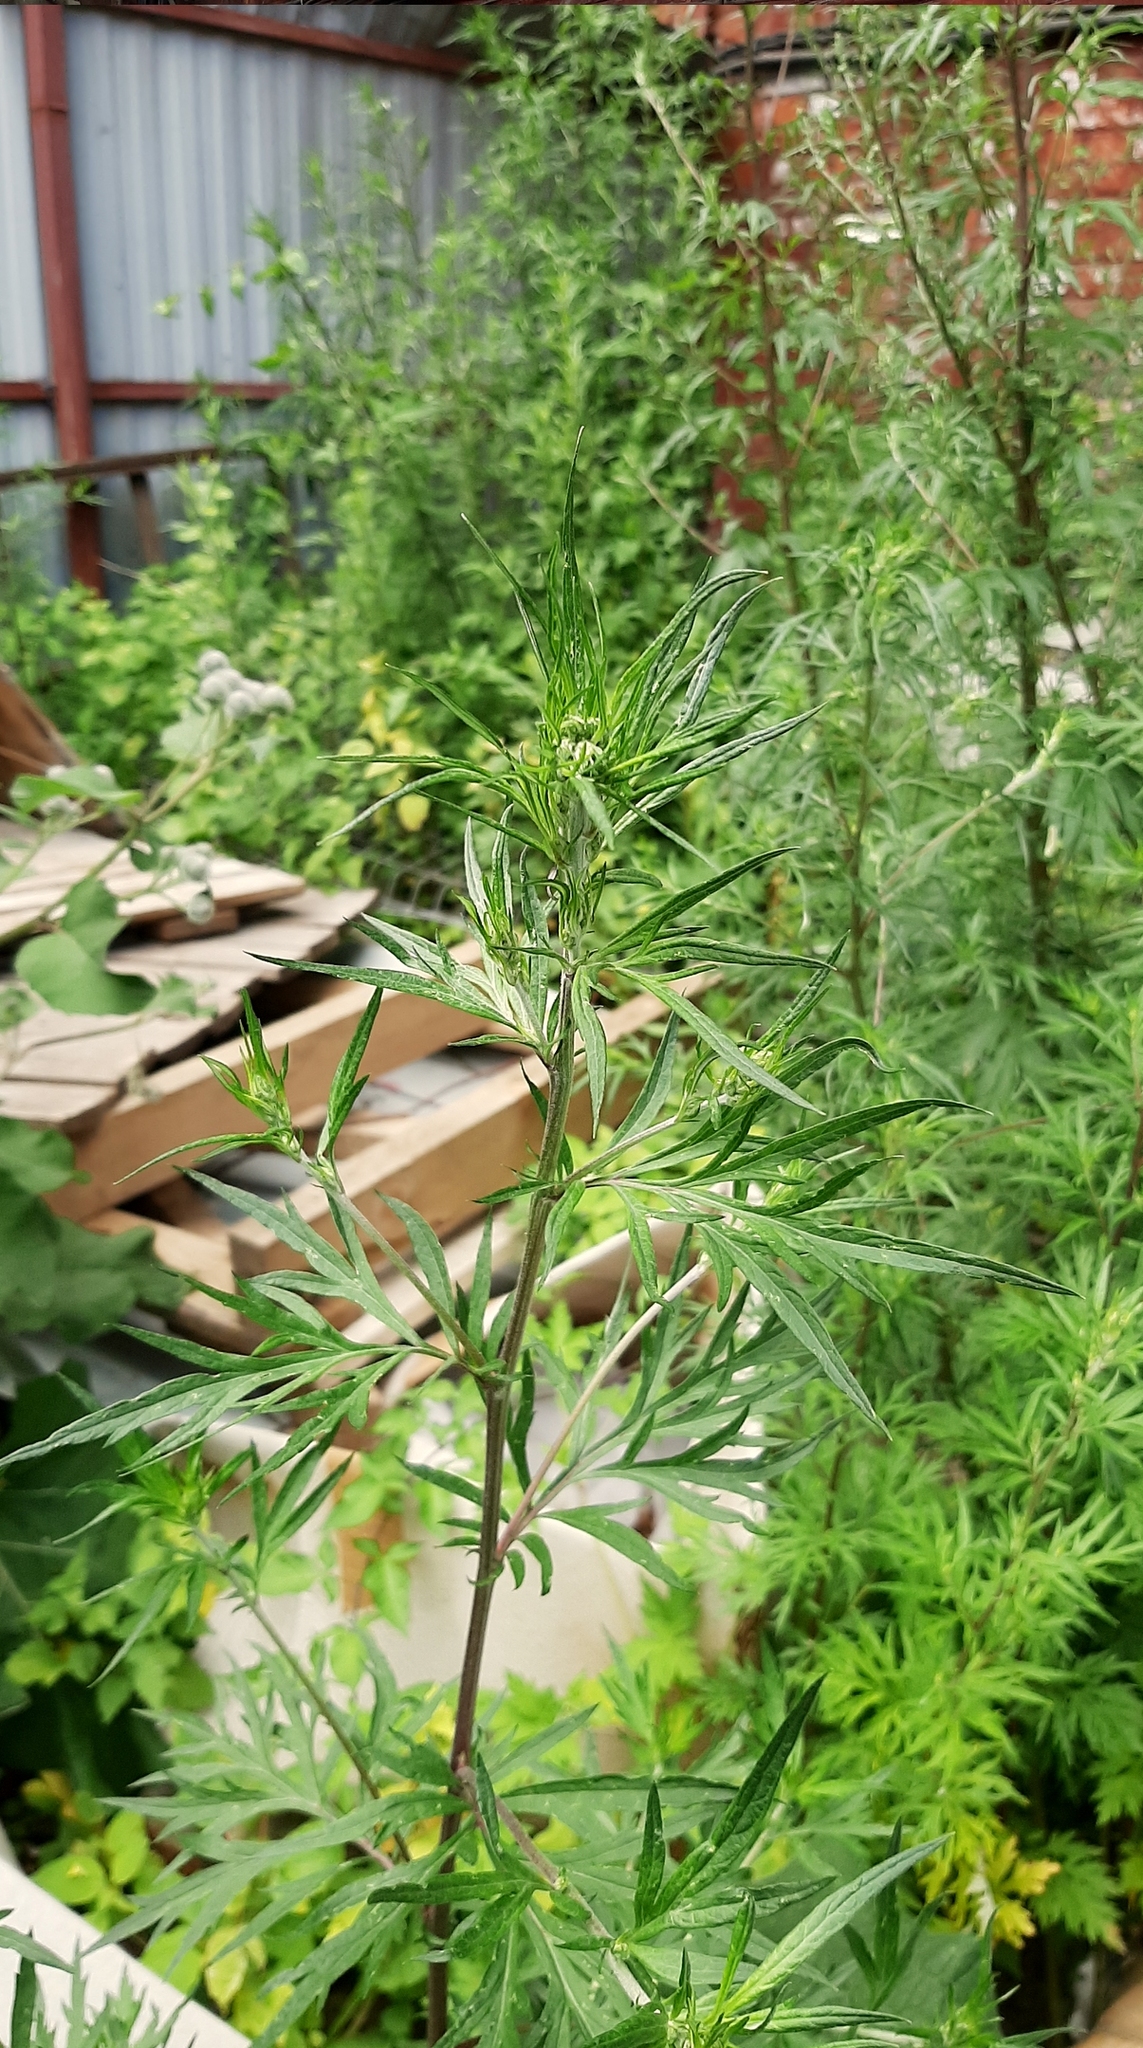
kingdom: Plantae
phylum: Tracheophyta
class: Magnoliopsida
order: Asterales
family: Asteraceae
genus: Artemisia
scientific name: Artemisia vulgaris
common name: Mugwort
